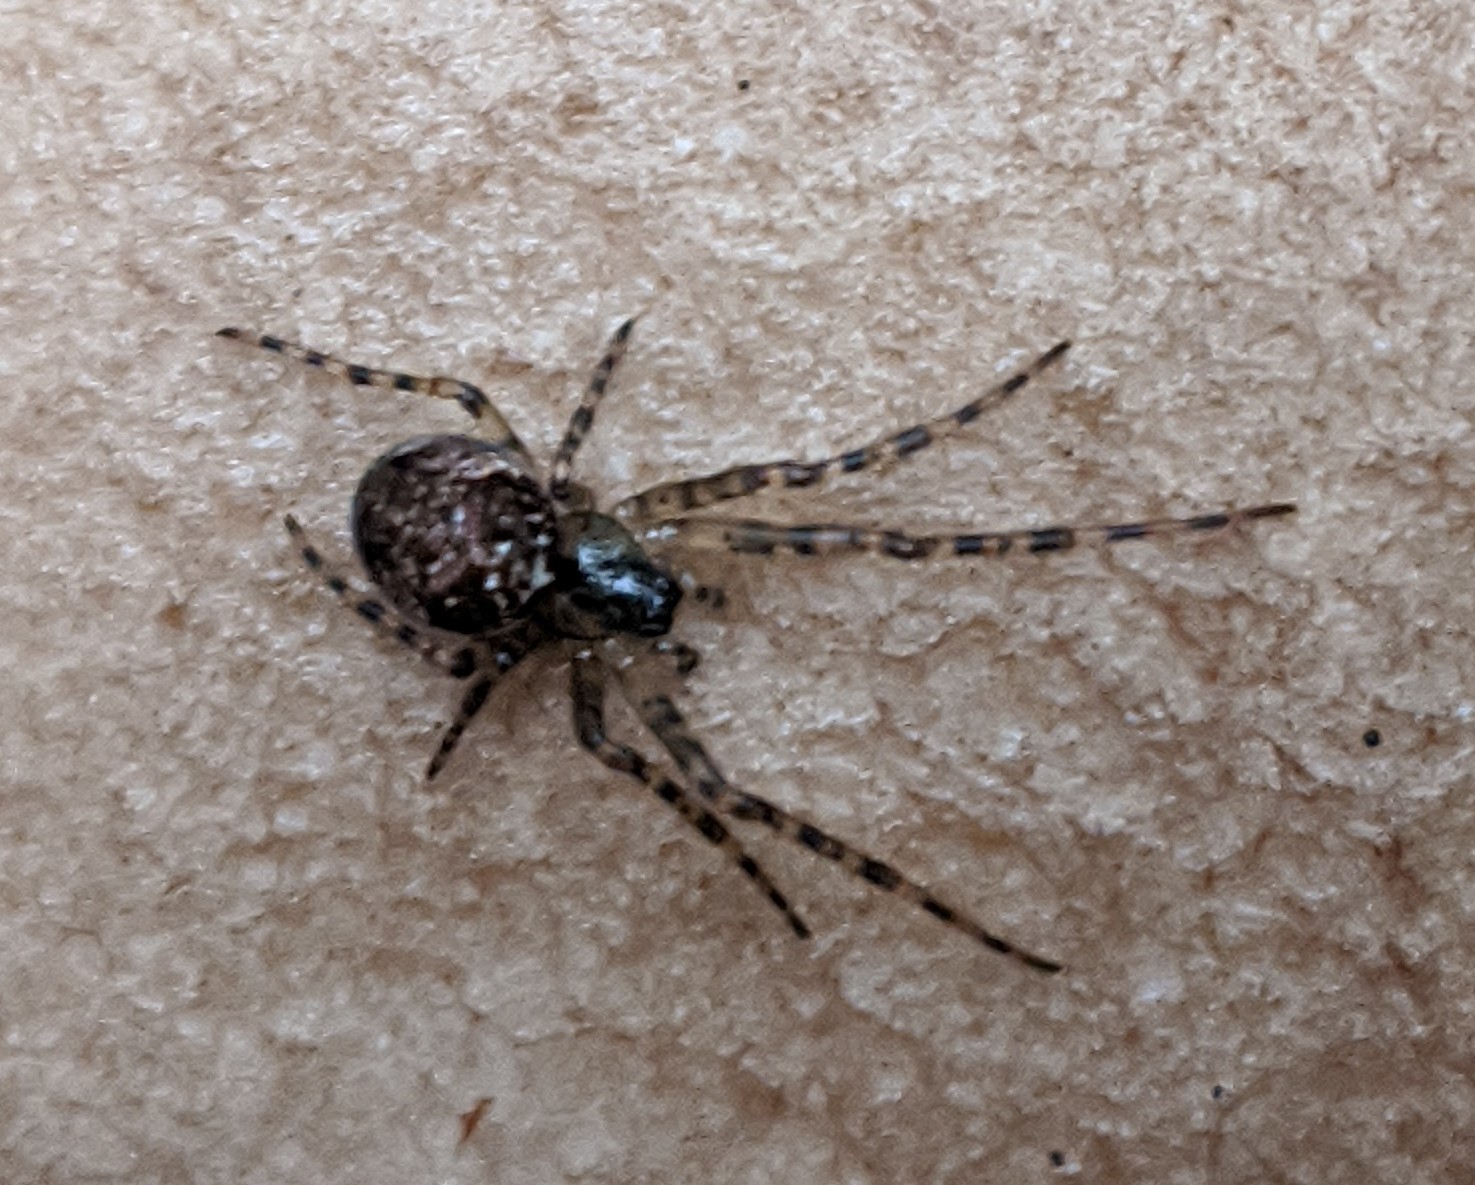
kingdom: Animalia
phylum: Arthropoda
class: Arachnida
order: Araneae
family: Tetragnathidae
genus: Metellina
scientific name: Metellina
